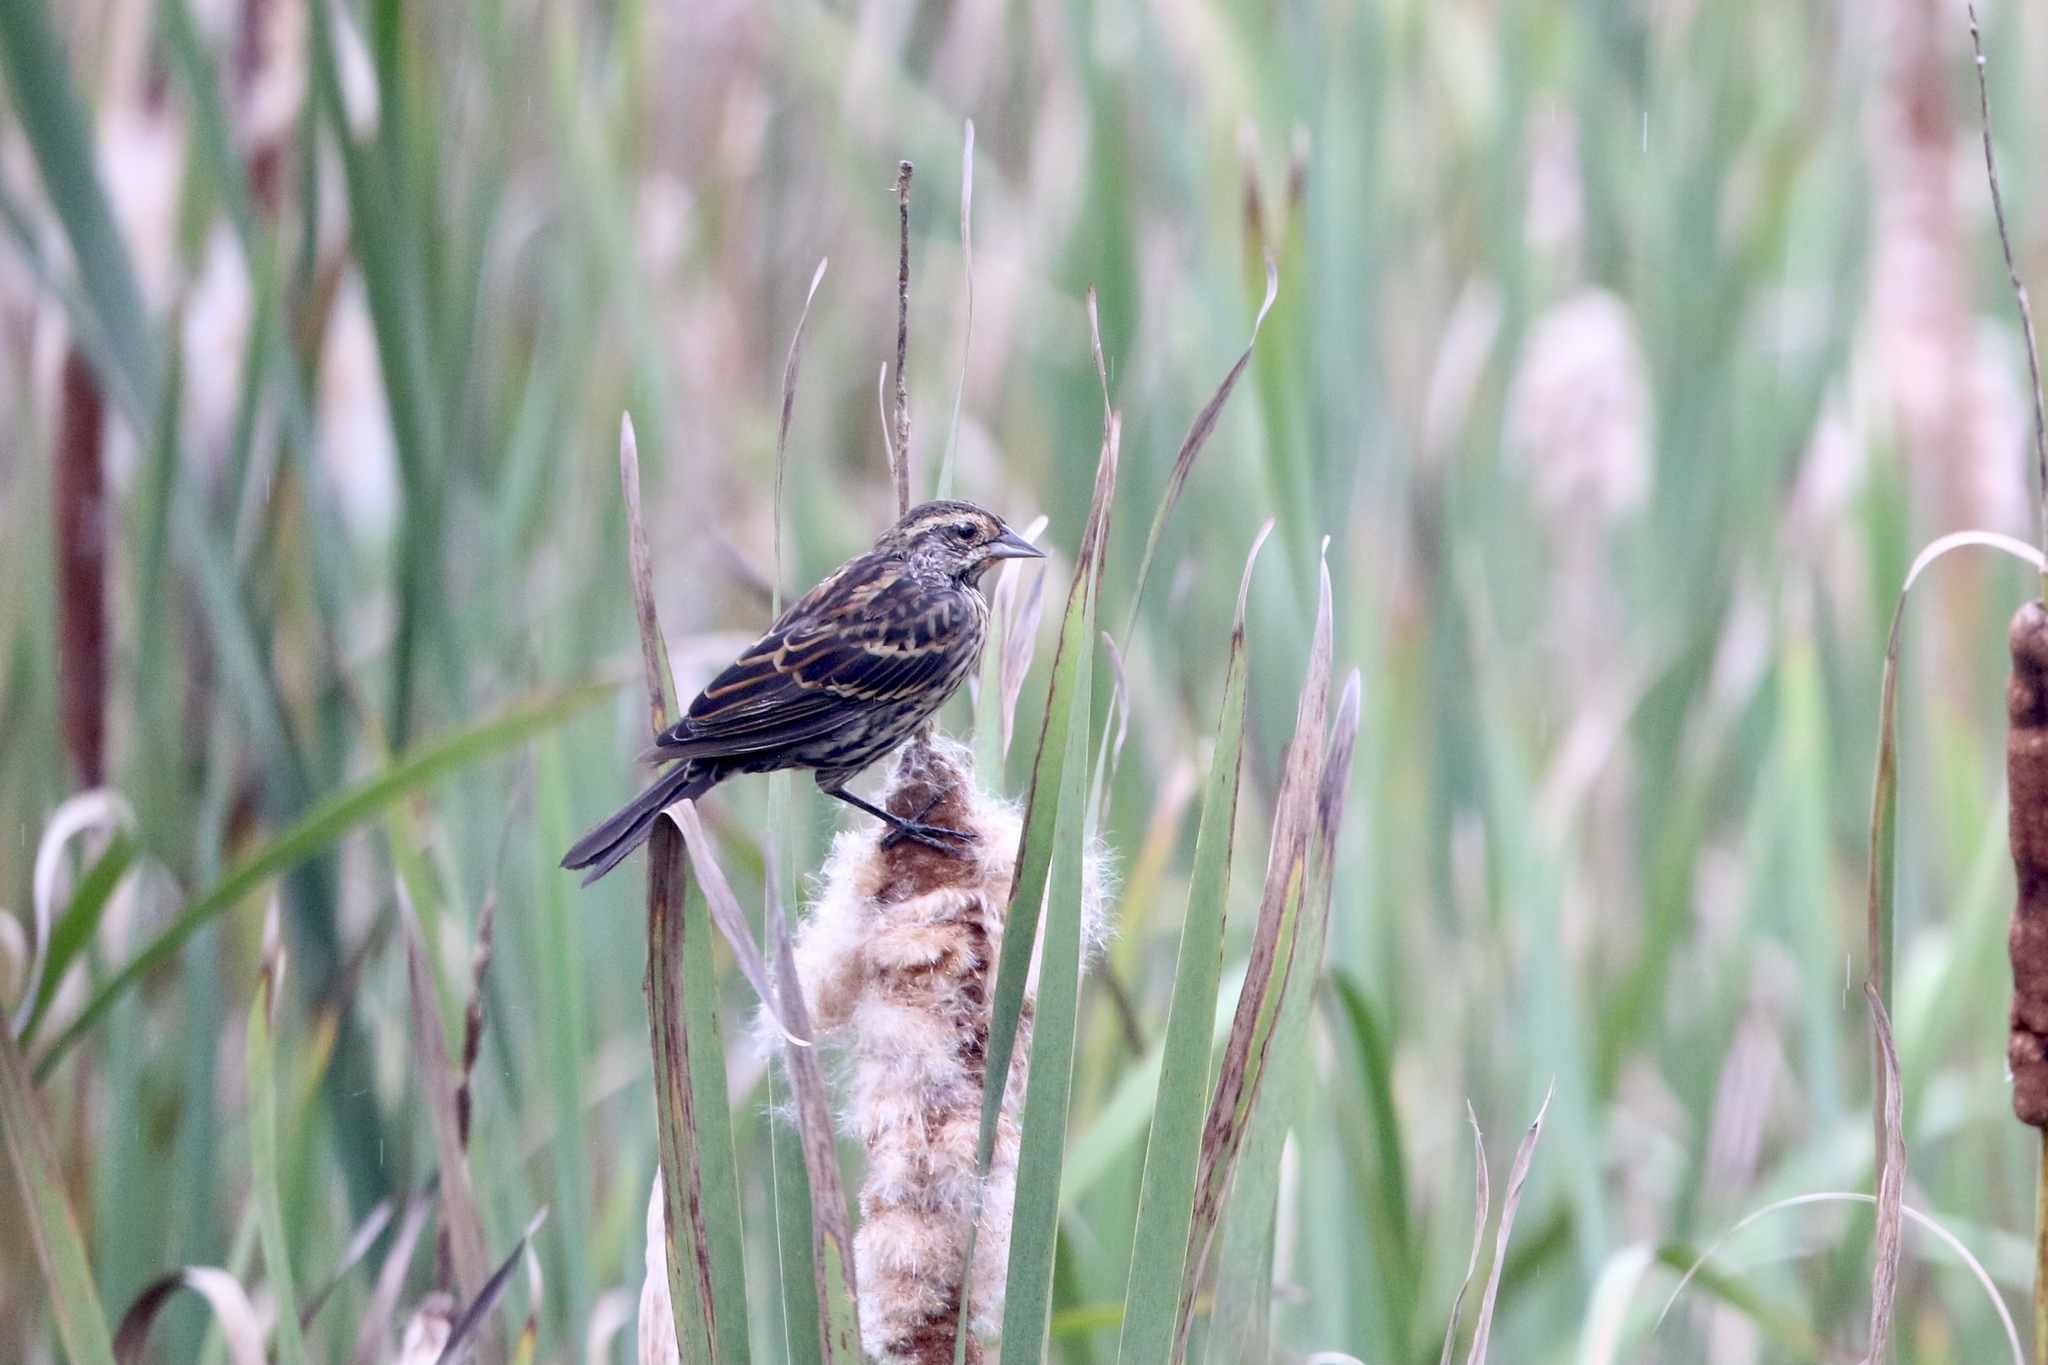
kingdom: Animalia
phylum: Chordata
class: Aves
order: Passeriformes
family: Icteridae
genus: Agelaius
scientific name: Agelaius phoeniceus
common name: Red-winged blackbird
